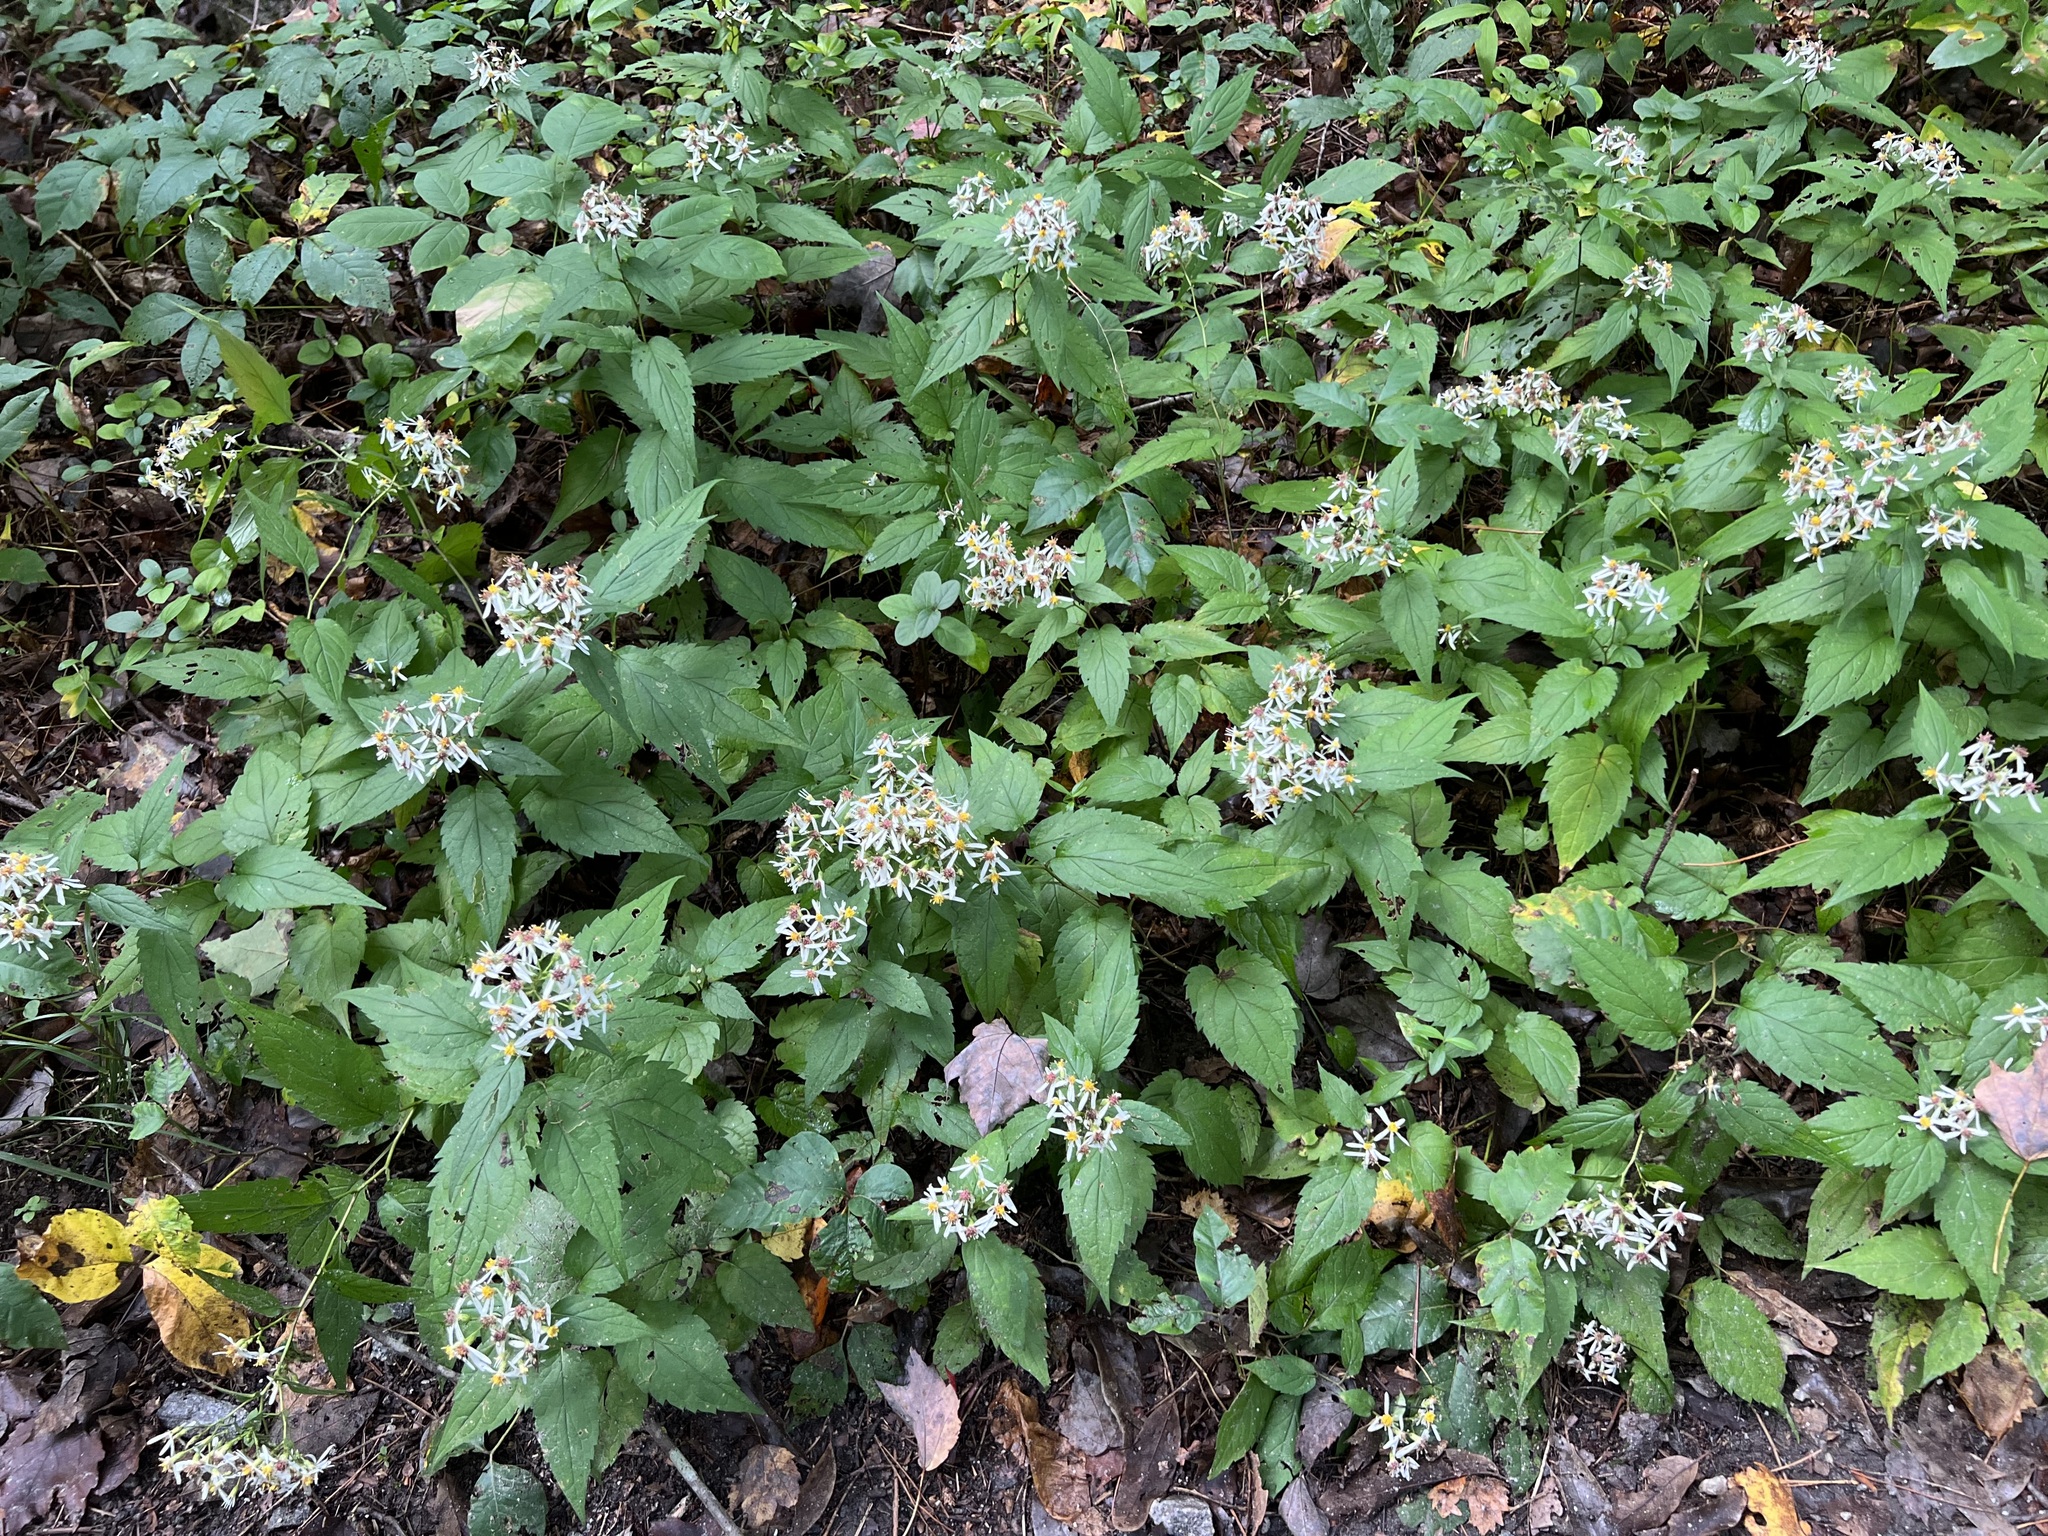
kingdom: Plantae
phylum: Tracheophyta
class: Magnoliopsida
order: Asterales
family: Asteraceae
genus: Eurybia
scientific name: Eurybia divaricata
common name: White wood aster
